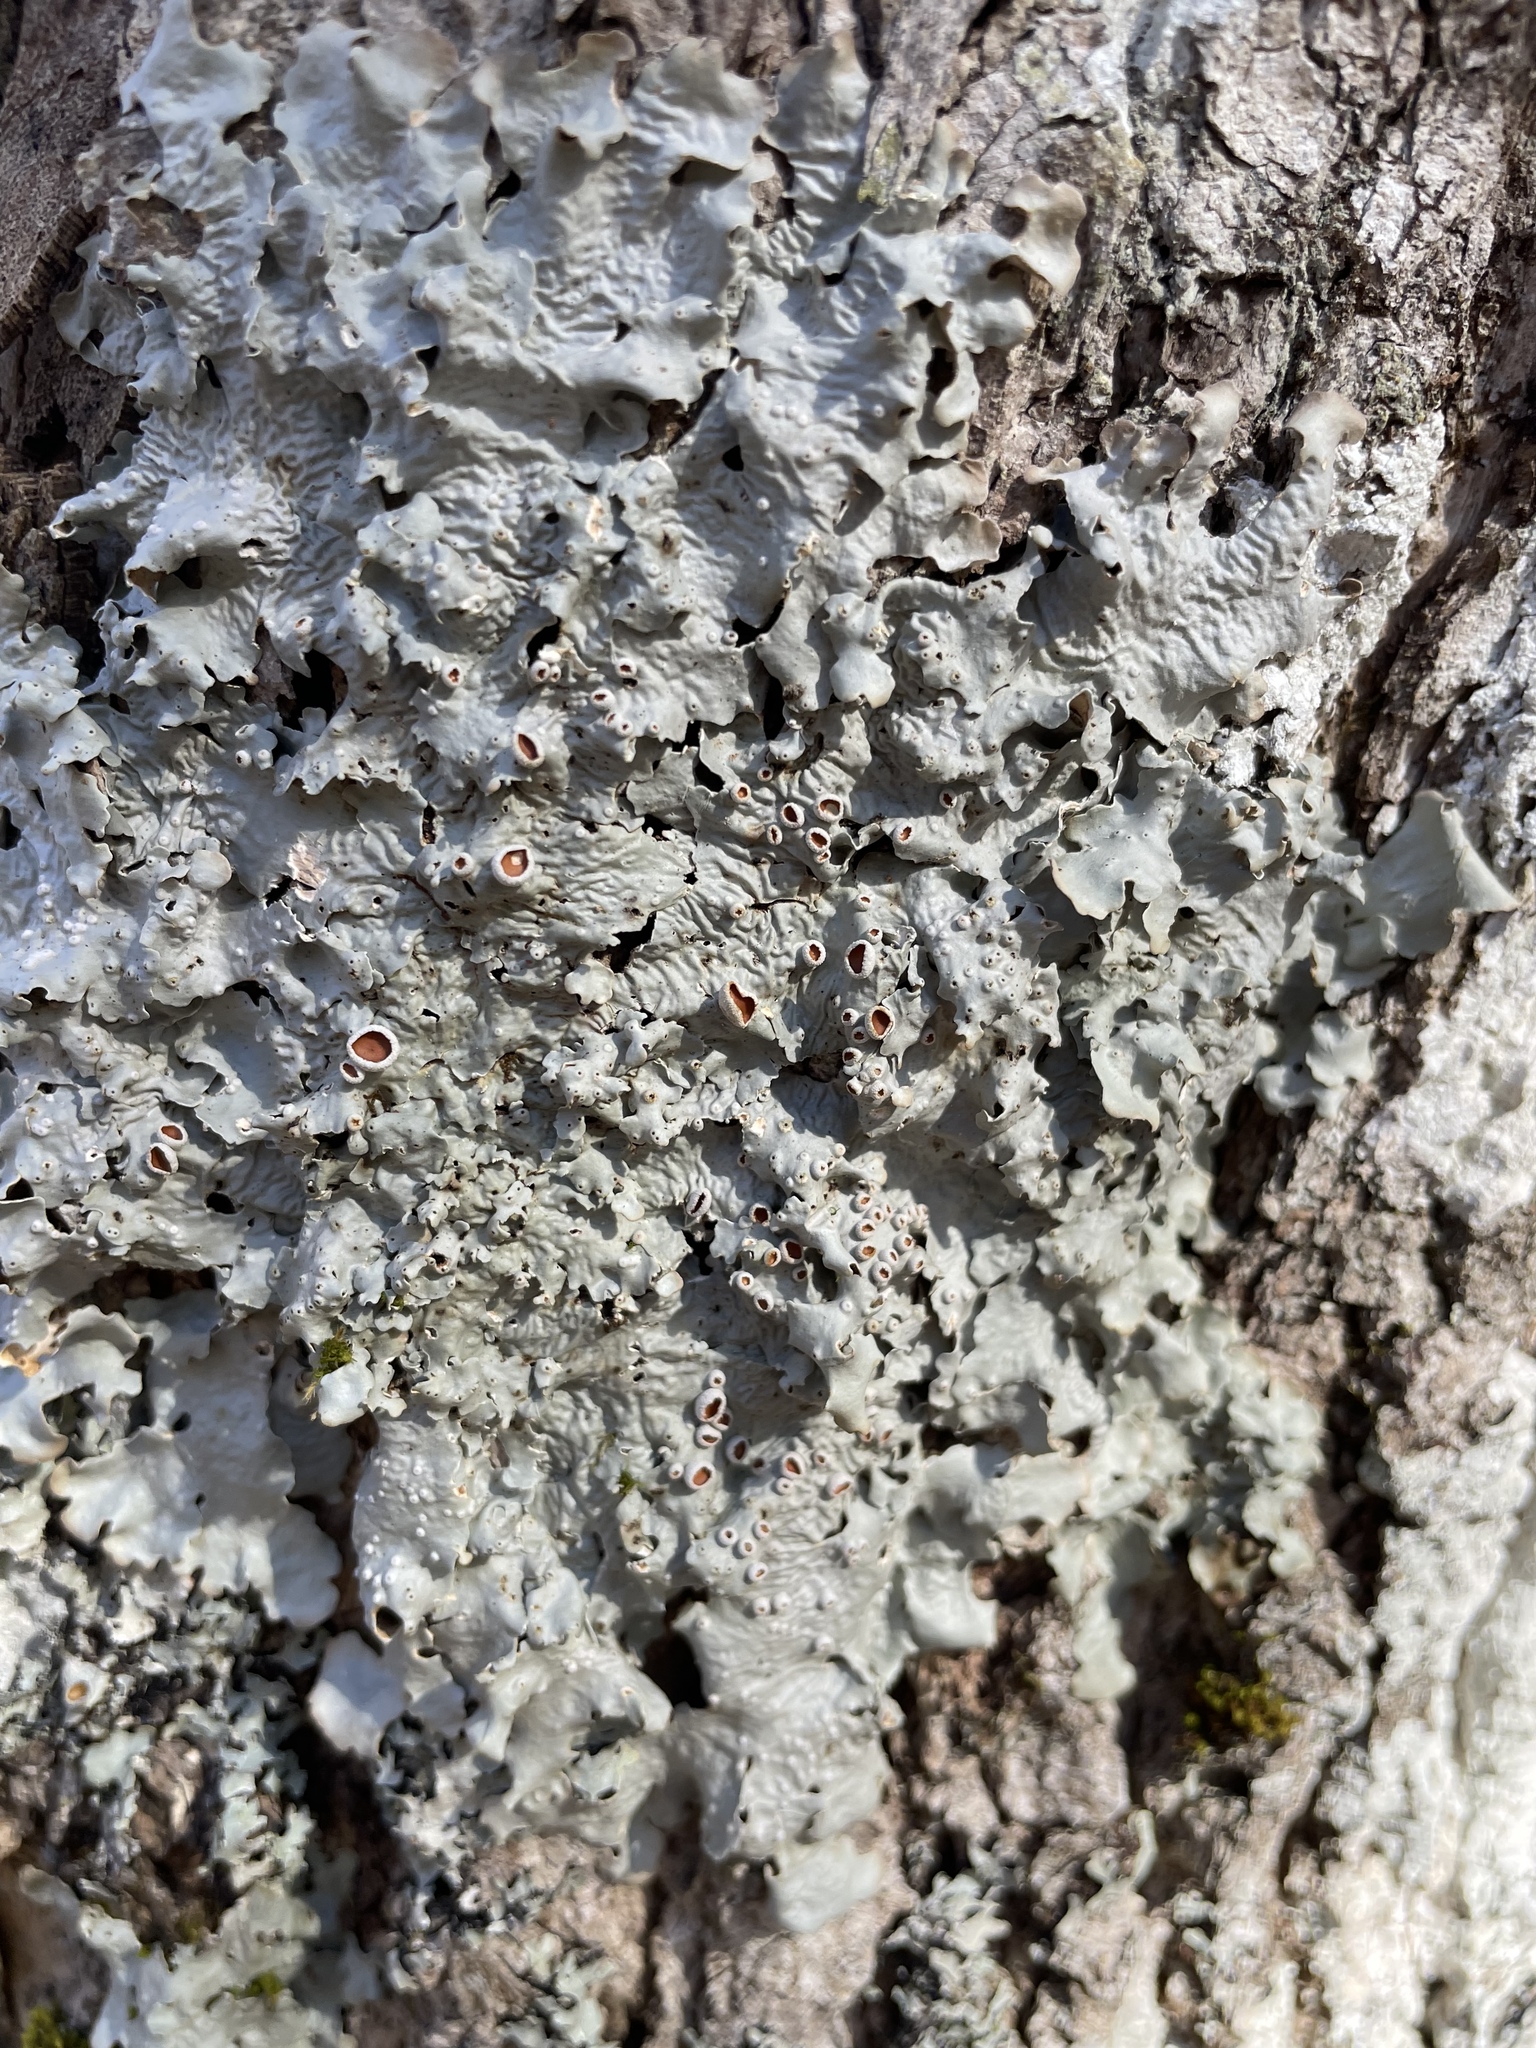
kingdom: Fungi
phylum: Ascomycota
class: Lecanoromycetes
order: Peltigerales
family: Lobariaceae
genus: Ricasolia
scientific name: Ricasolia quercizans
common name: Smooth lungwort
